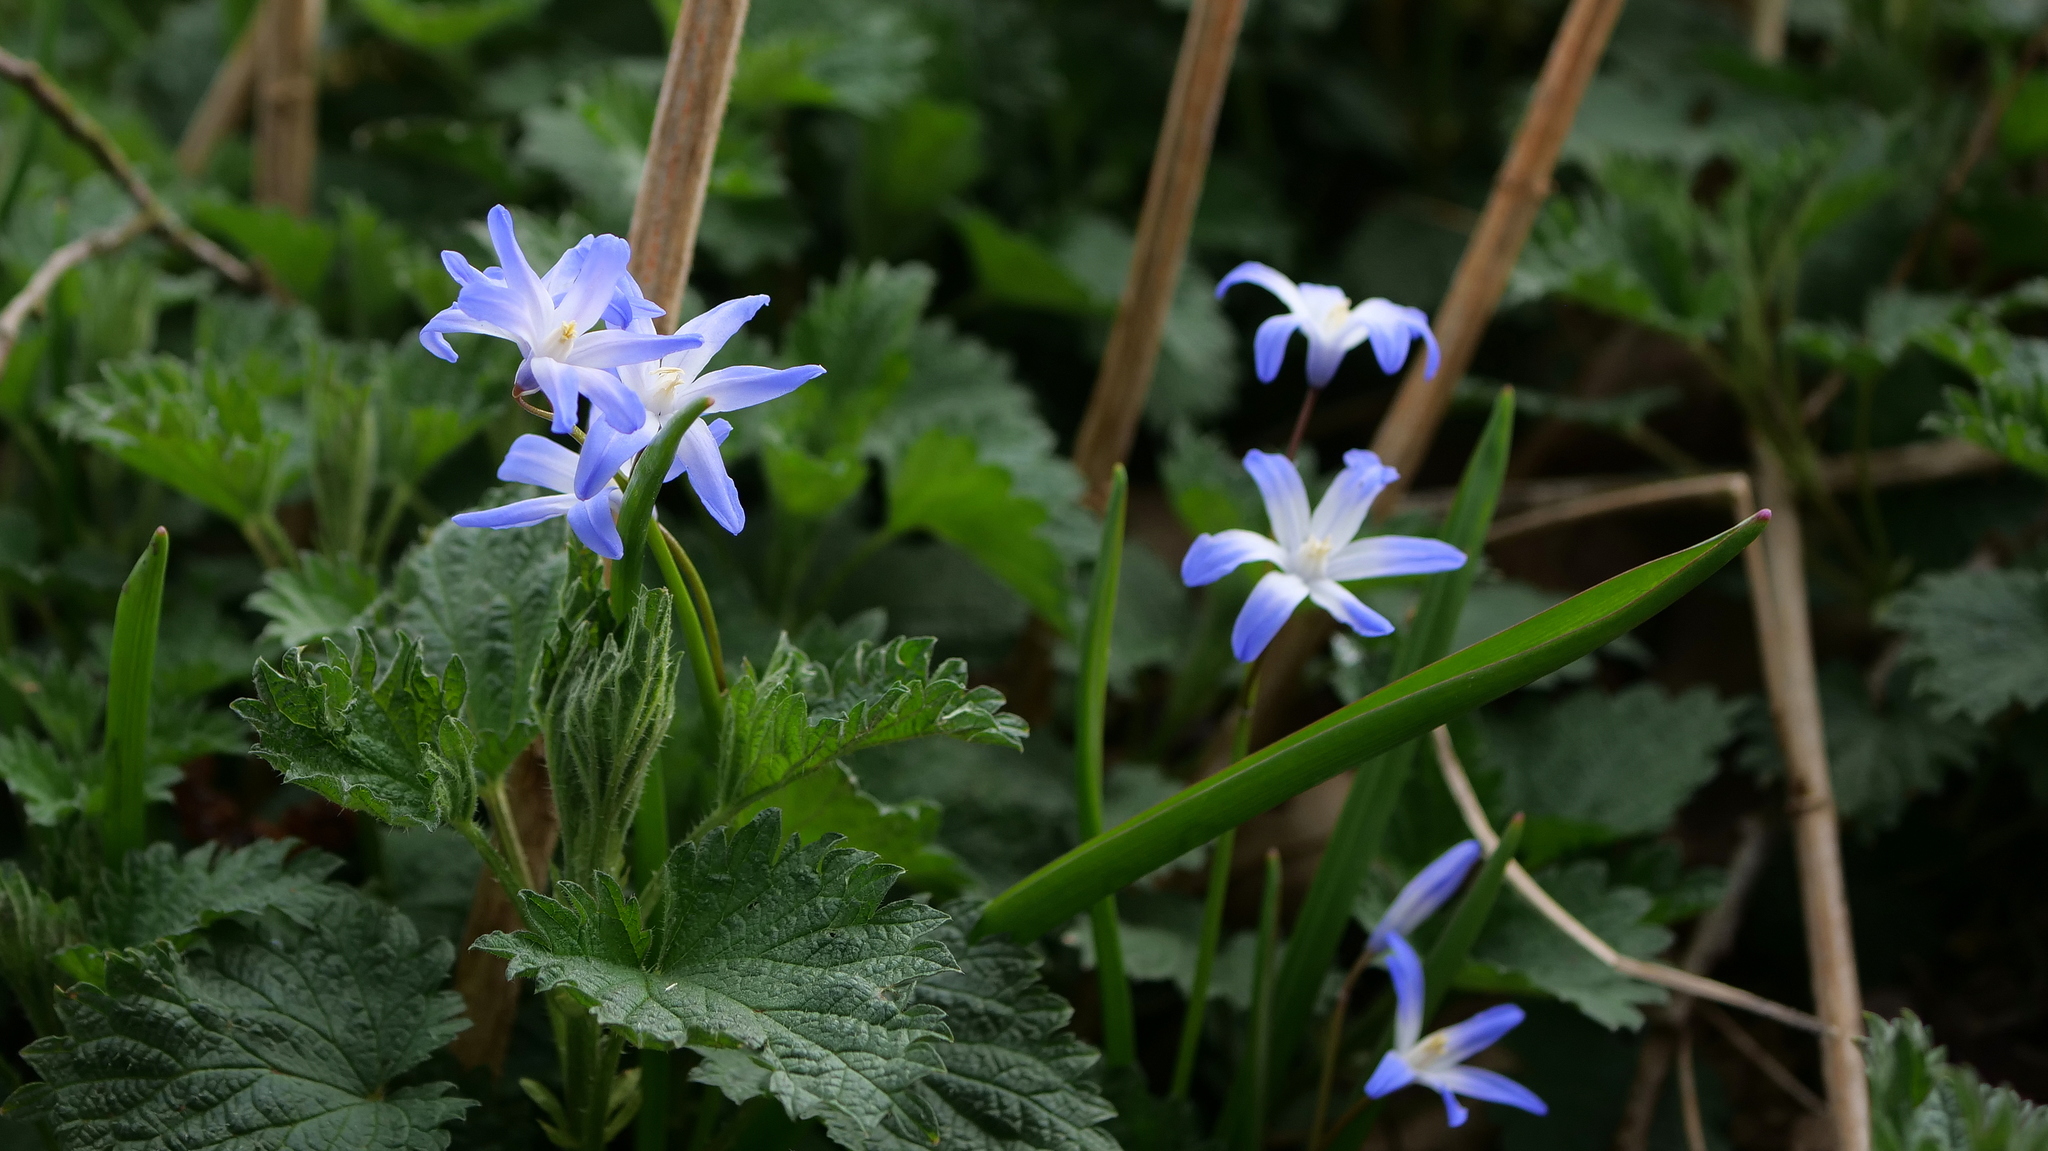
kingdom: Plantae
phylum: Tracheophyta
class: Liliopsida
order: Asparagales
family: Asparagaceae
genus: Scilla
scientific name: Scilla luciliae
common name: Boissier's glory-of-the-snow
